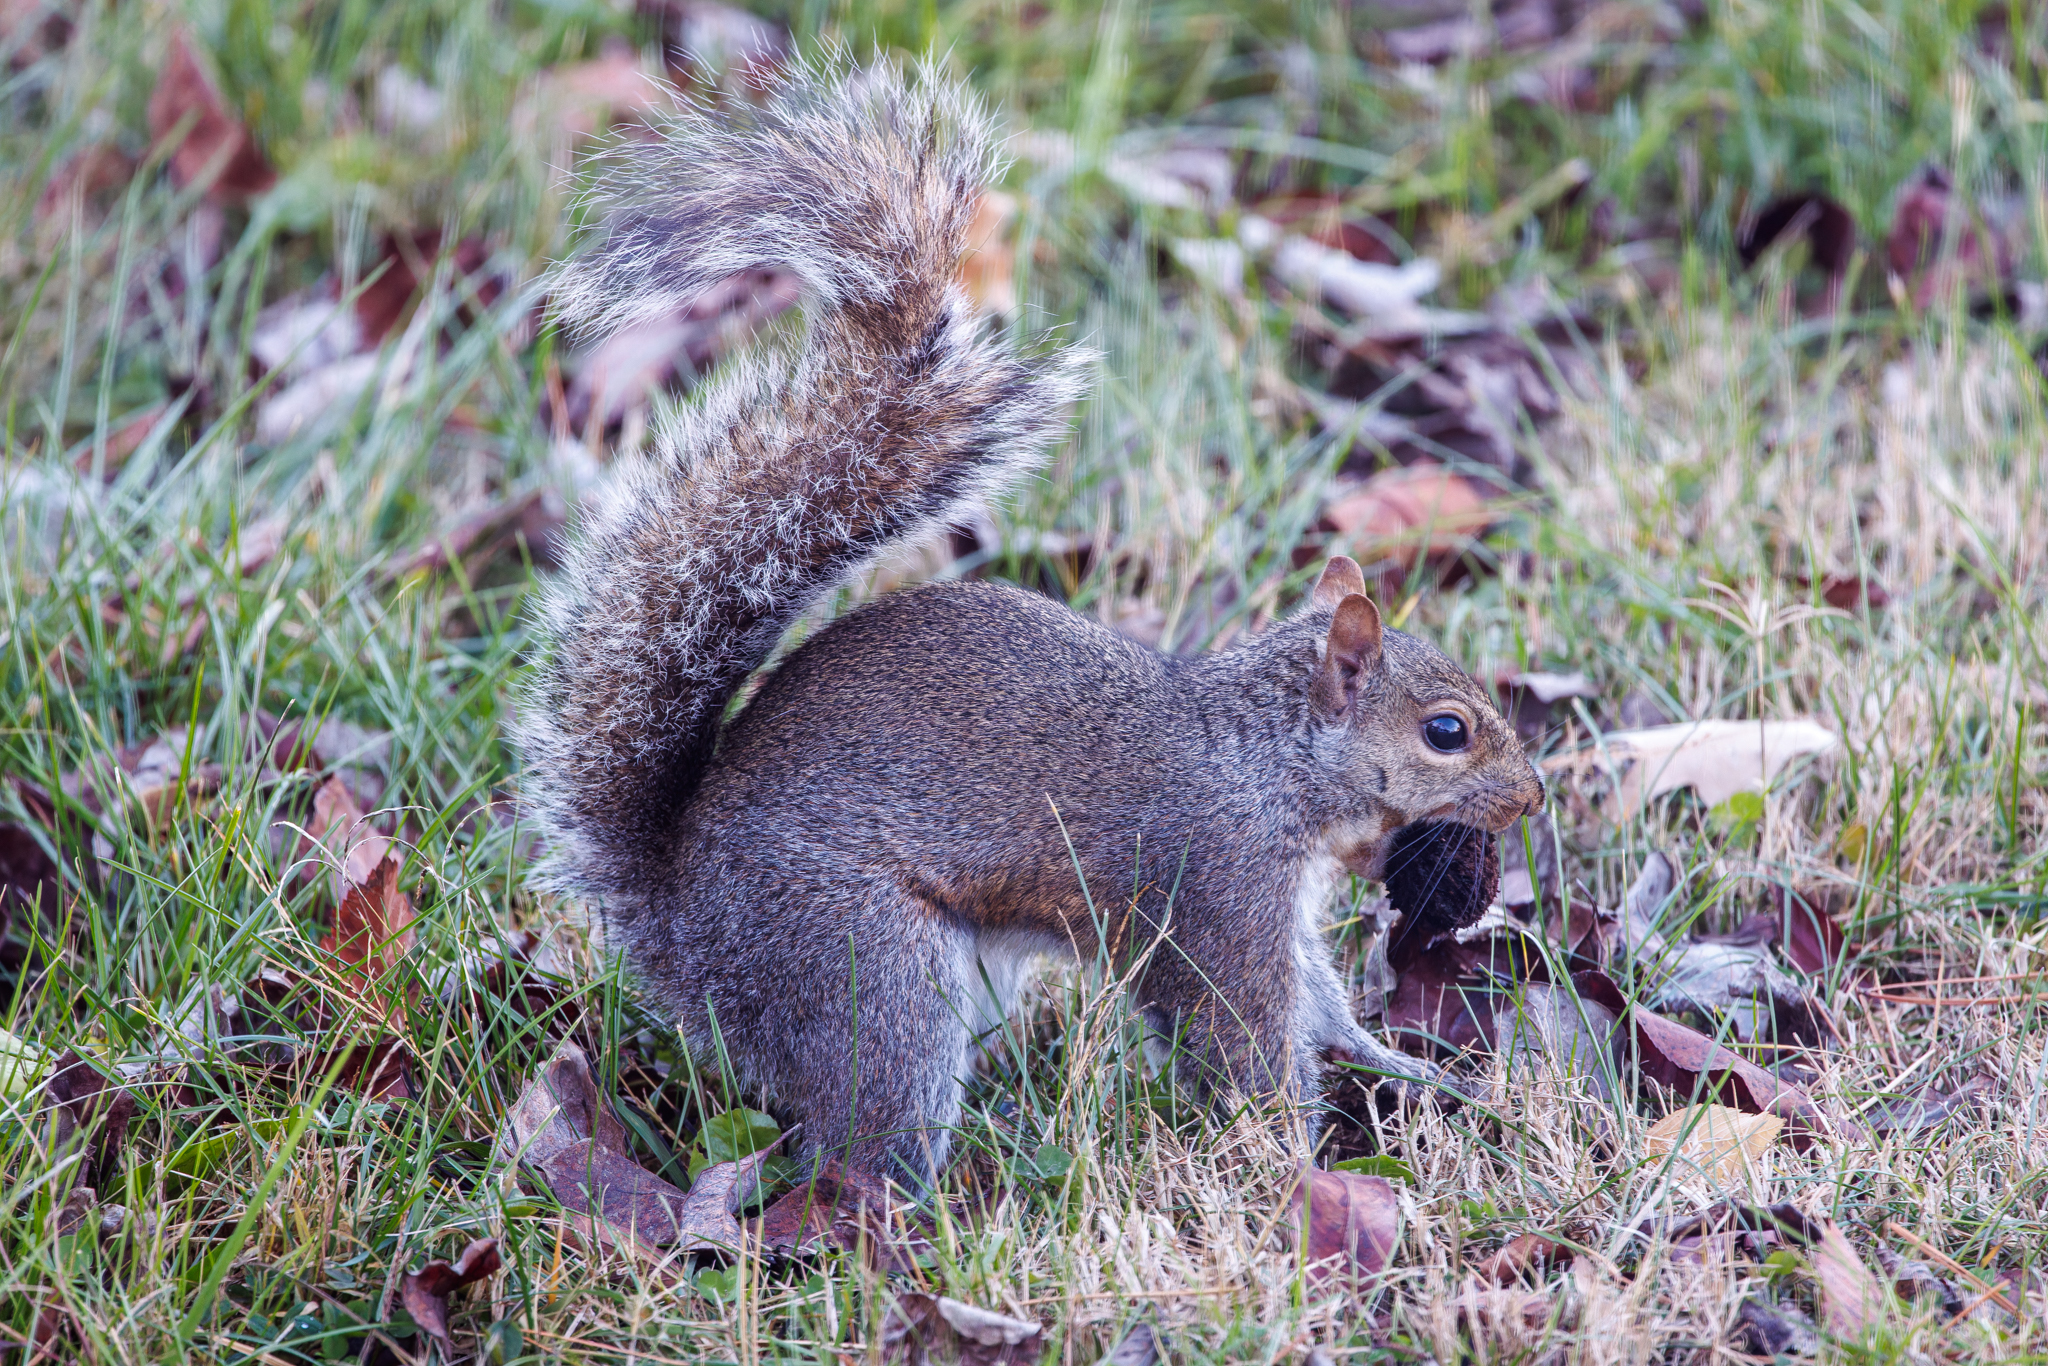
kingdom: Animalia
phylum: Chordata
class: Mammalia
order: Rodentia
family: Sciuridae
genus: Sciurus
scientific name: Sciurus carolinensis
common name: Eastern gray squirrel
